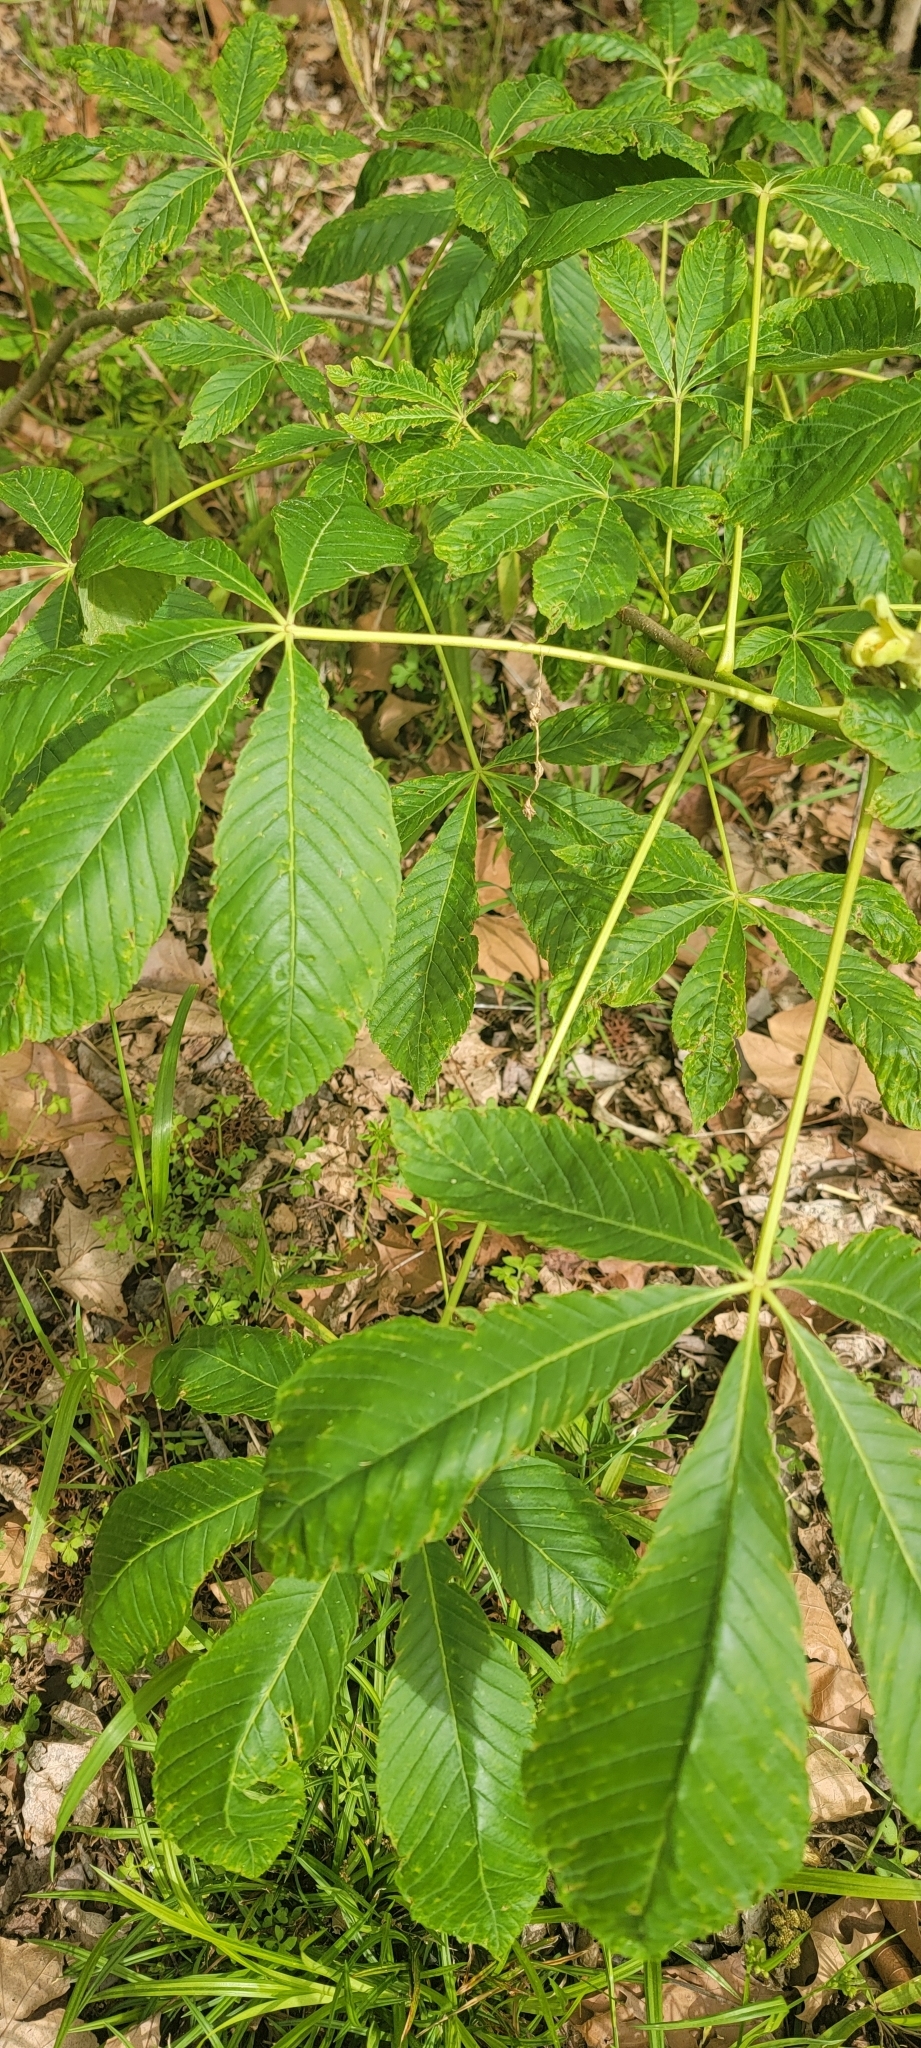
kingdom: Plantae
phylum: Tracheophyta
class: Magnoliopsida
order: Sapindales
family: Sapindaceae
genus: Aesculus
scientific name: Aesculus sylvatica
